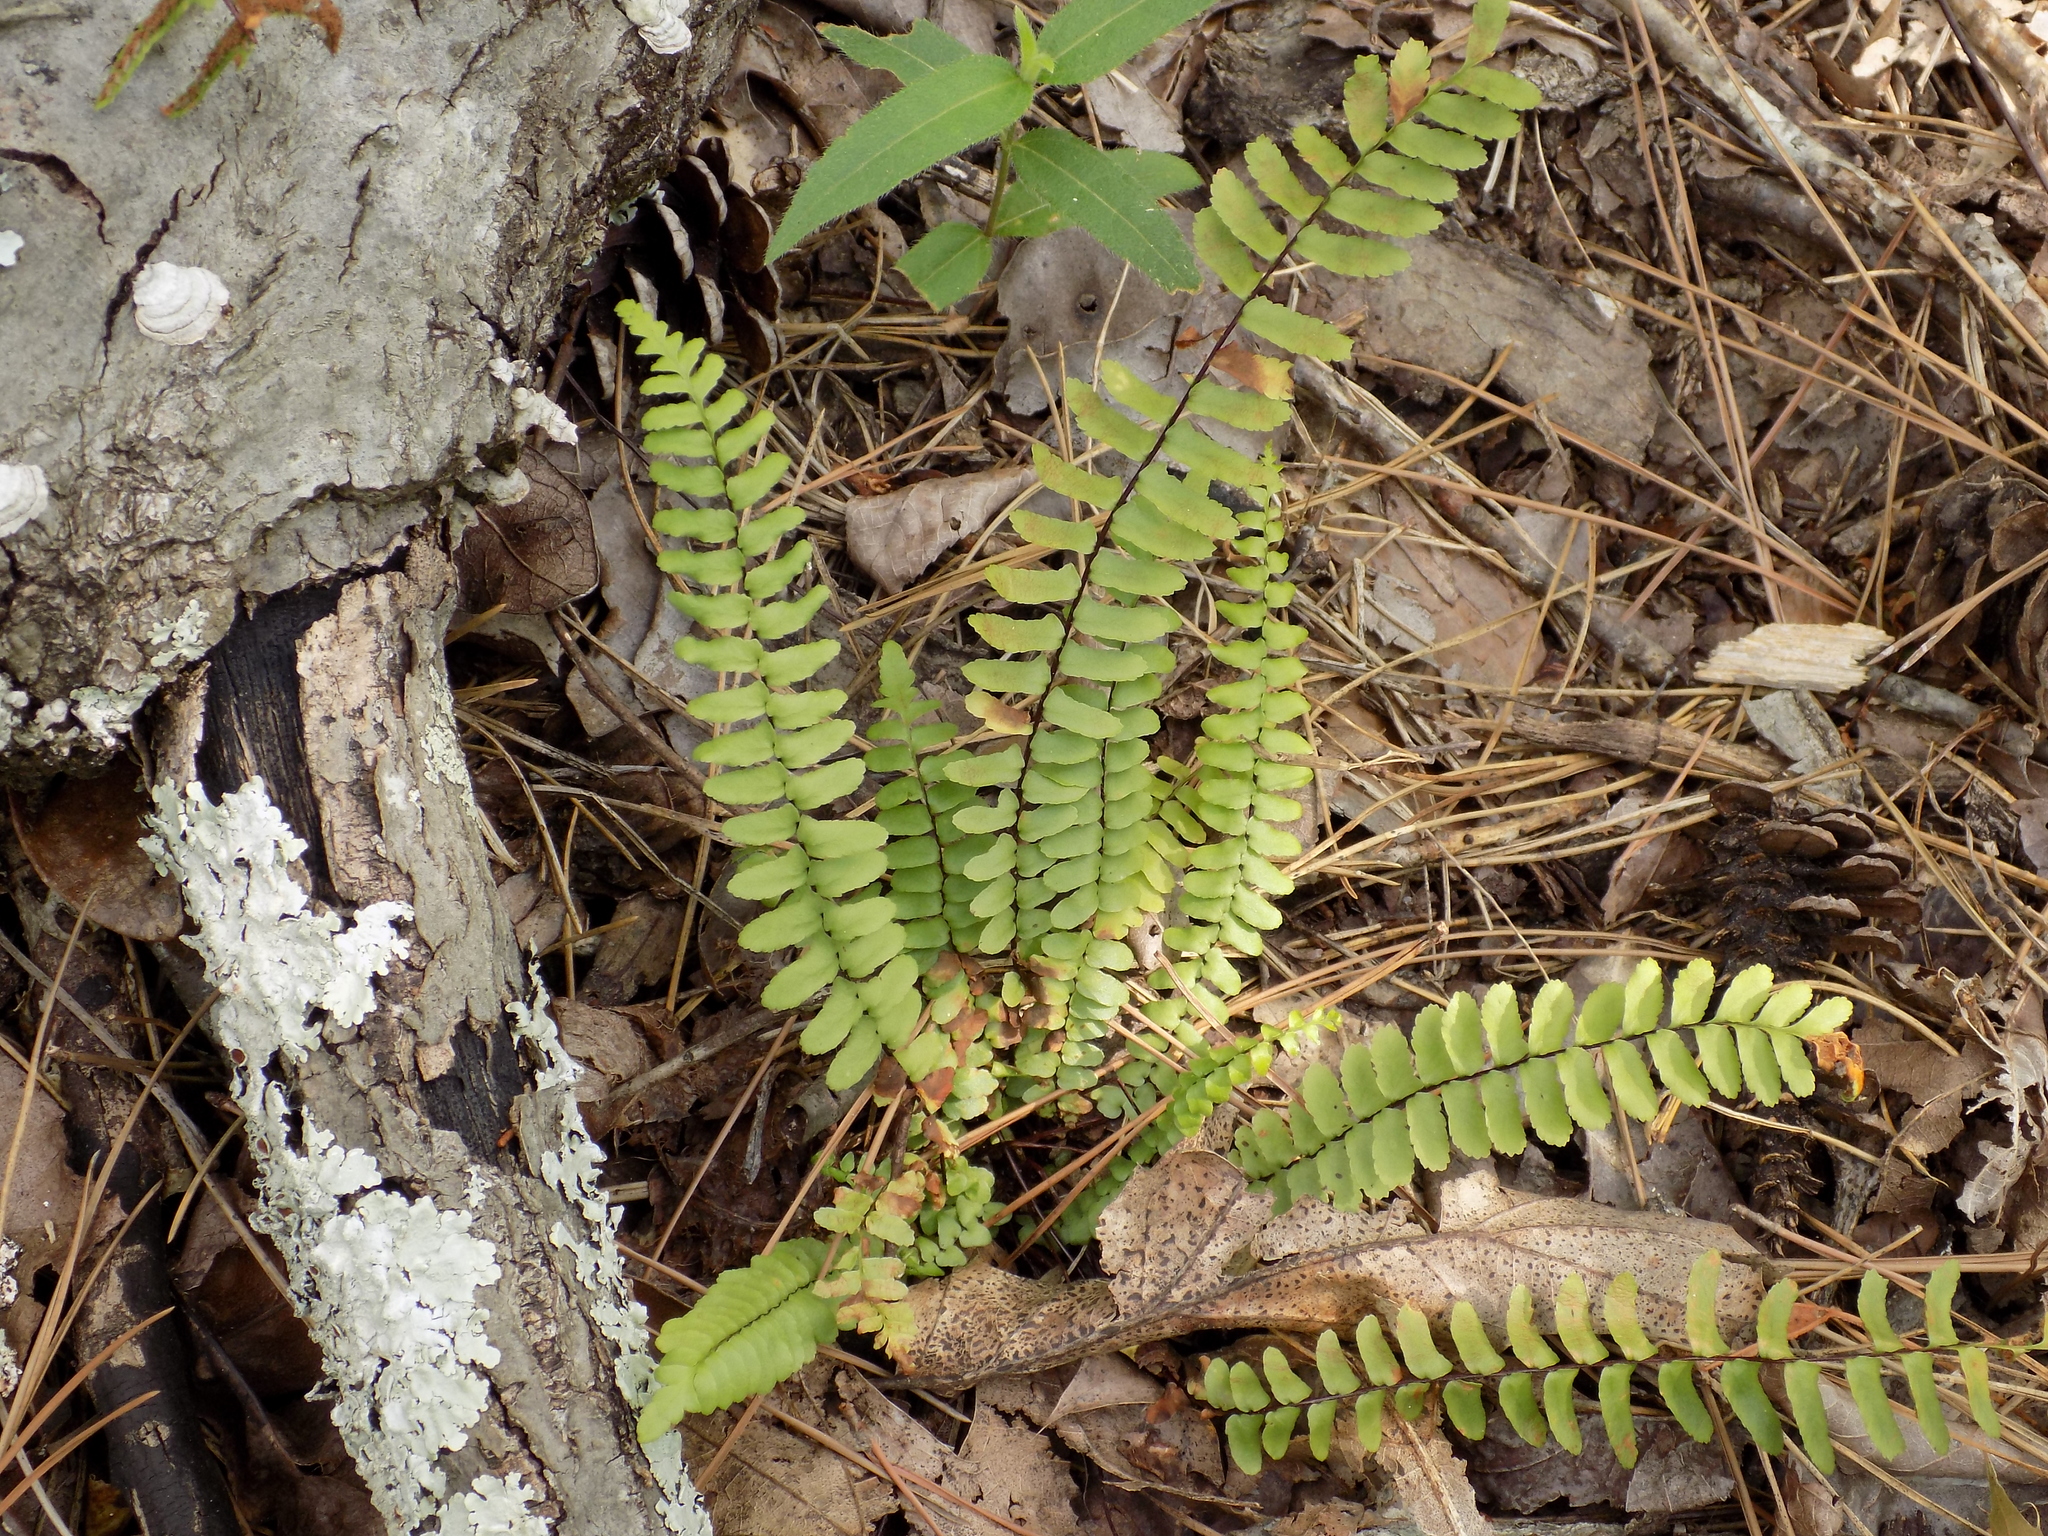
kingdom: Plantae
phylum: Tracheophyta
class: Polypodiopsida
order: Polypodiales
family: Aspleniaceae
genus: Asplenium
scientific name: Asplenium platyneuron
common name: Ebony spleenwort
